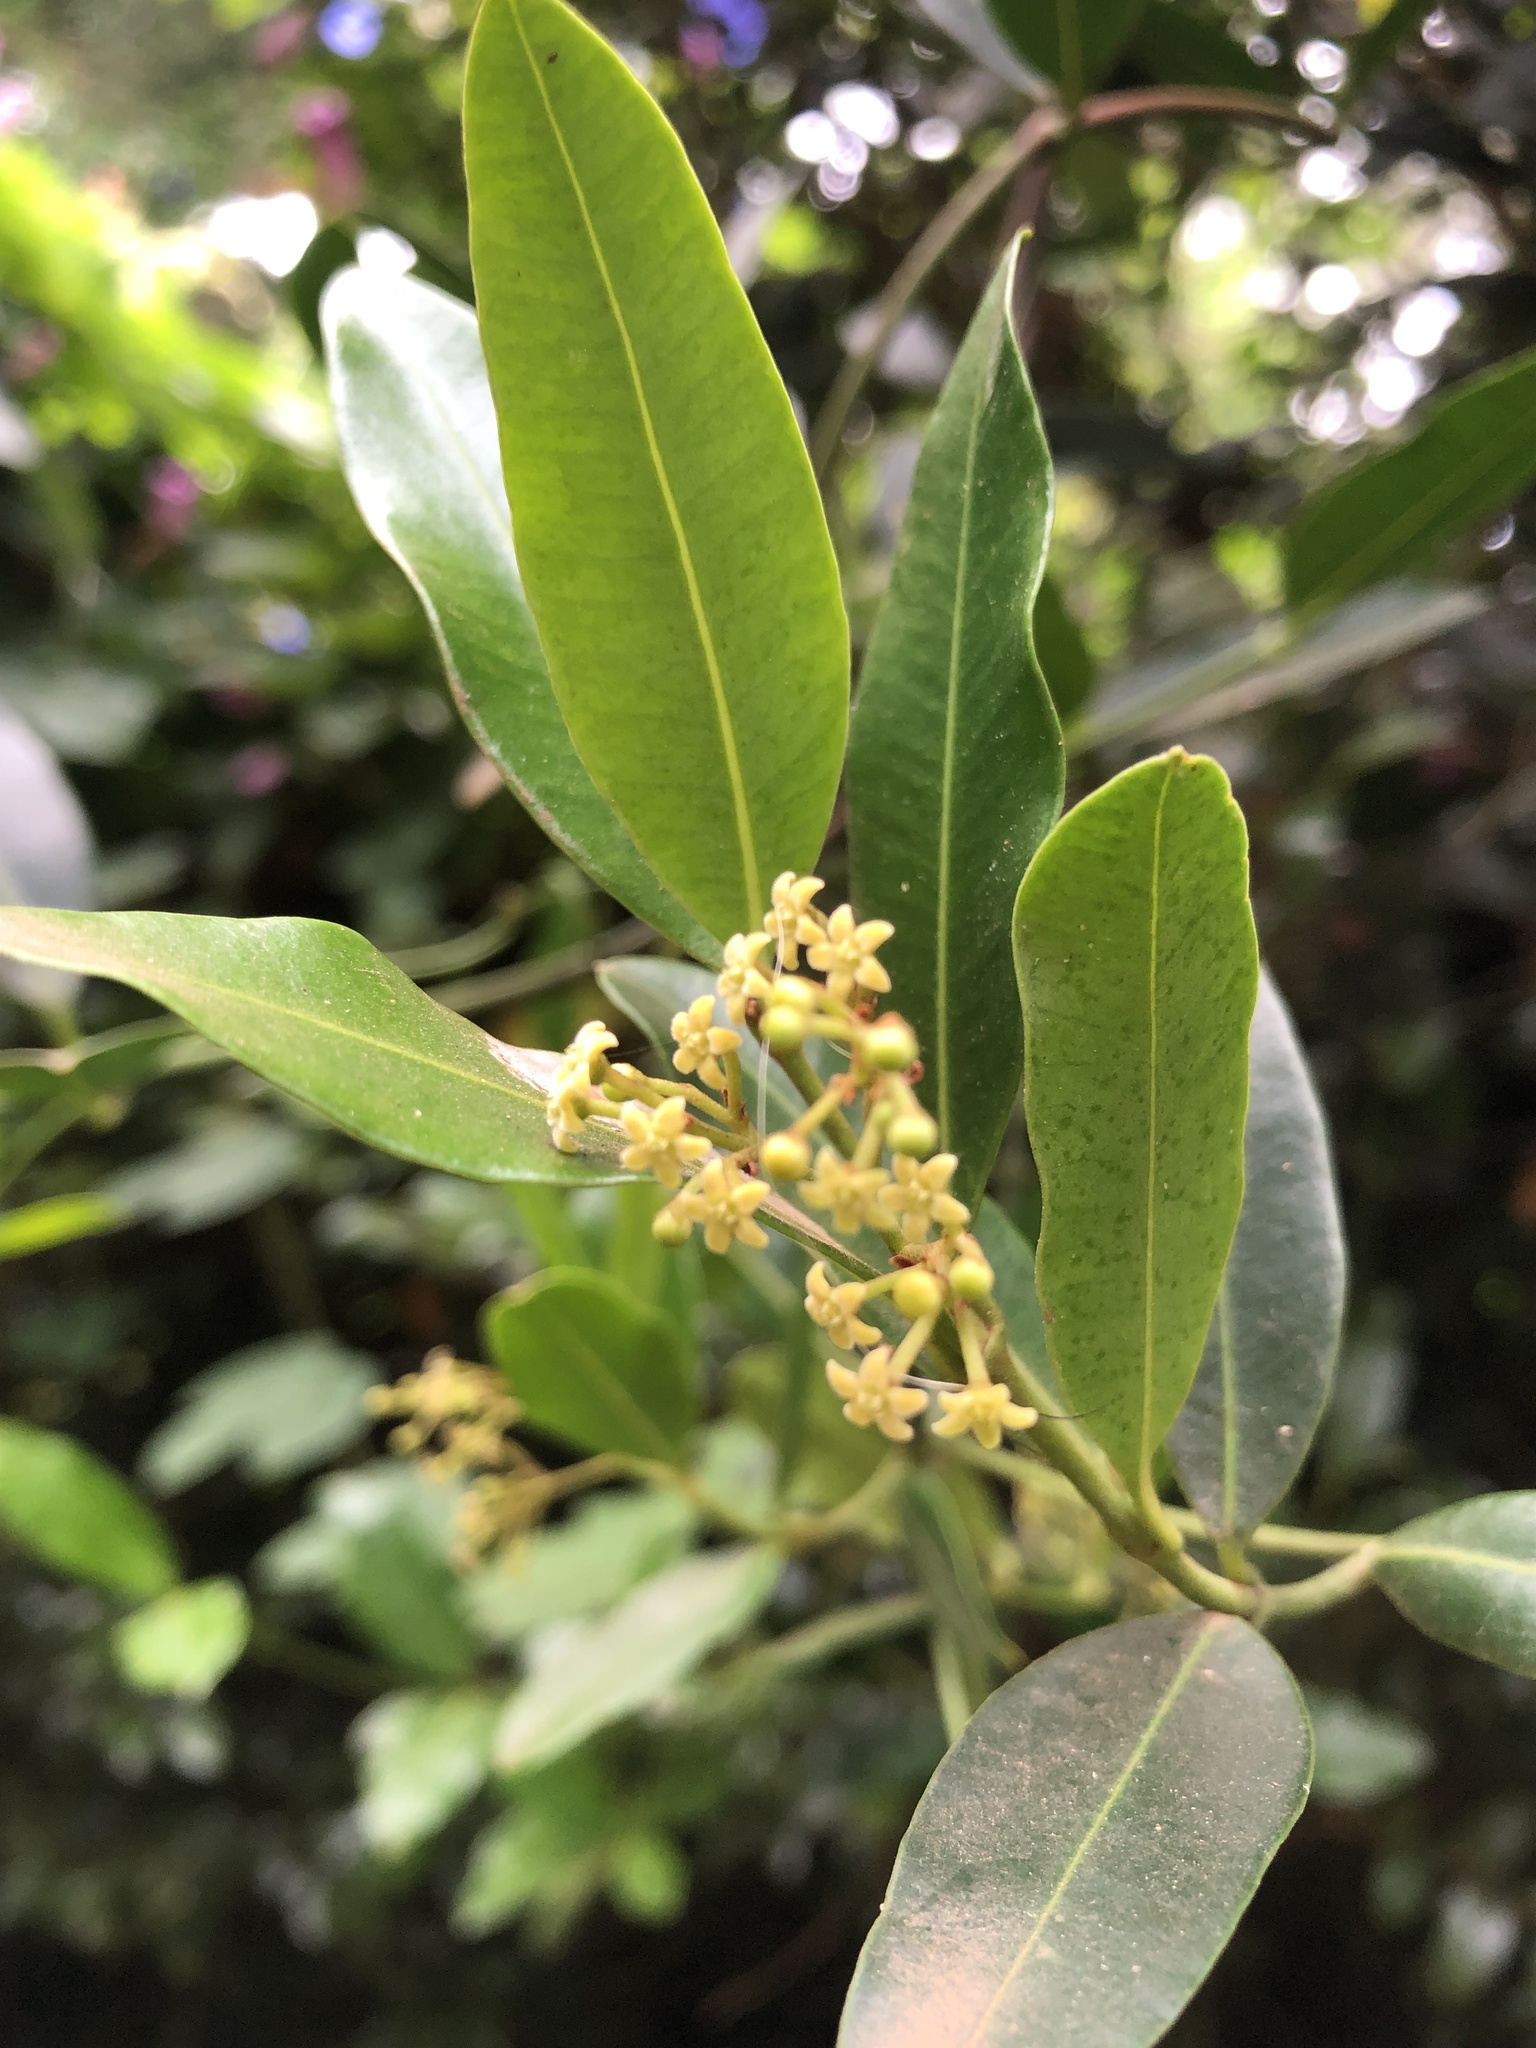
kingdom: Plantae
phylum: Tracheophyta
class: Magnoliopsida
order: Gentianales
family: Apocynaceae
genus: Secamone
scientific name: Secamone alpini
